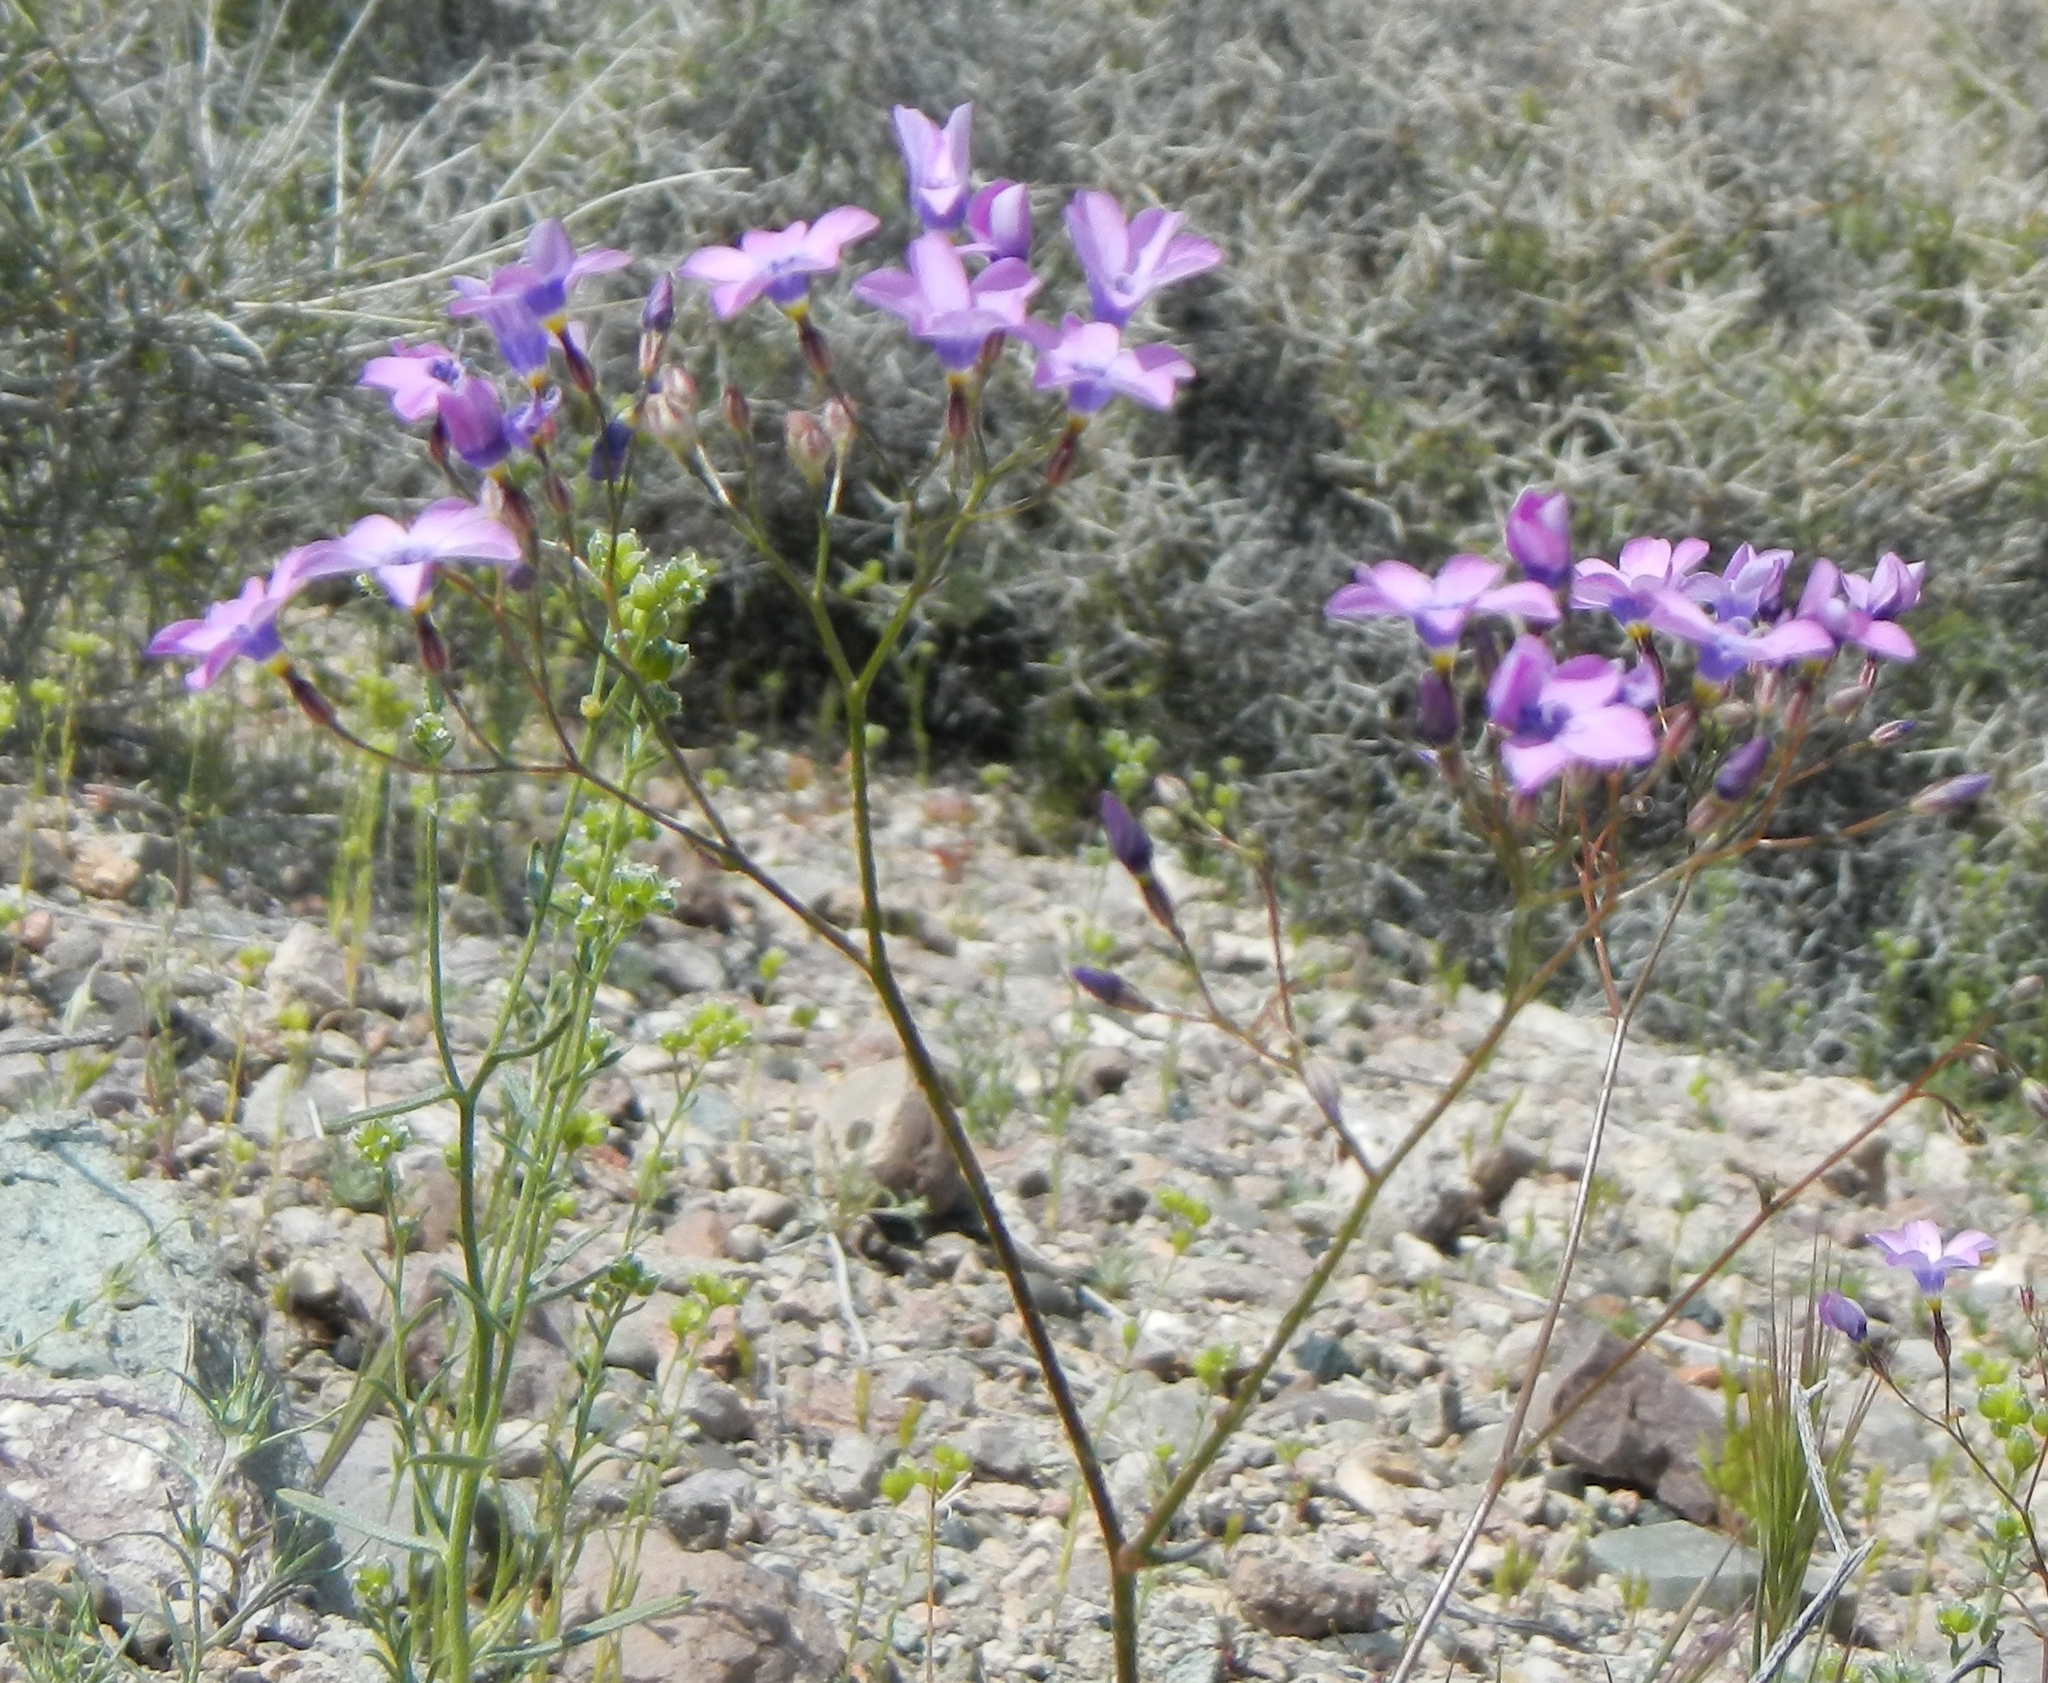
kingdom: Plantae
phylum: Tracheophyta
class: Magnoliopsida
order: Ericales
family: Polemoniaceae
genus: Gilia
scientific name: Gilia cana
